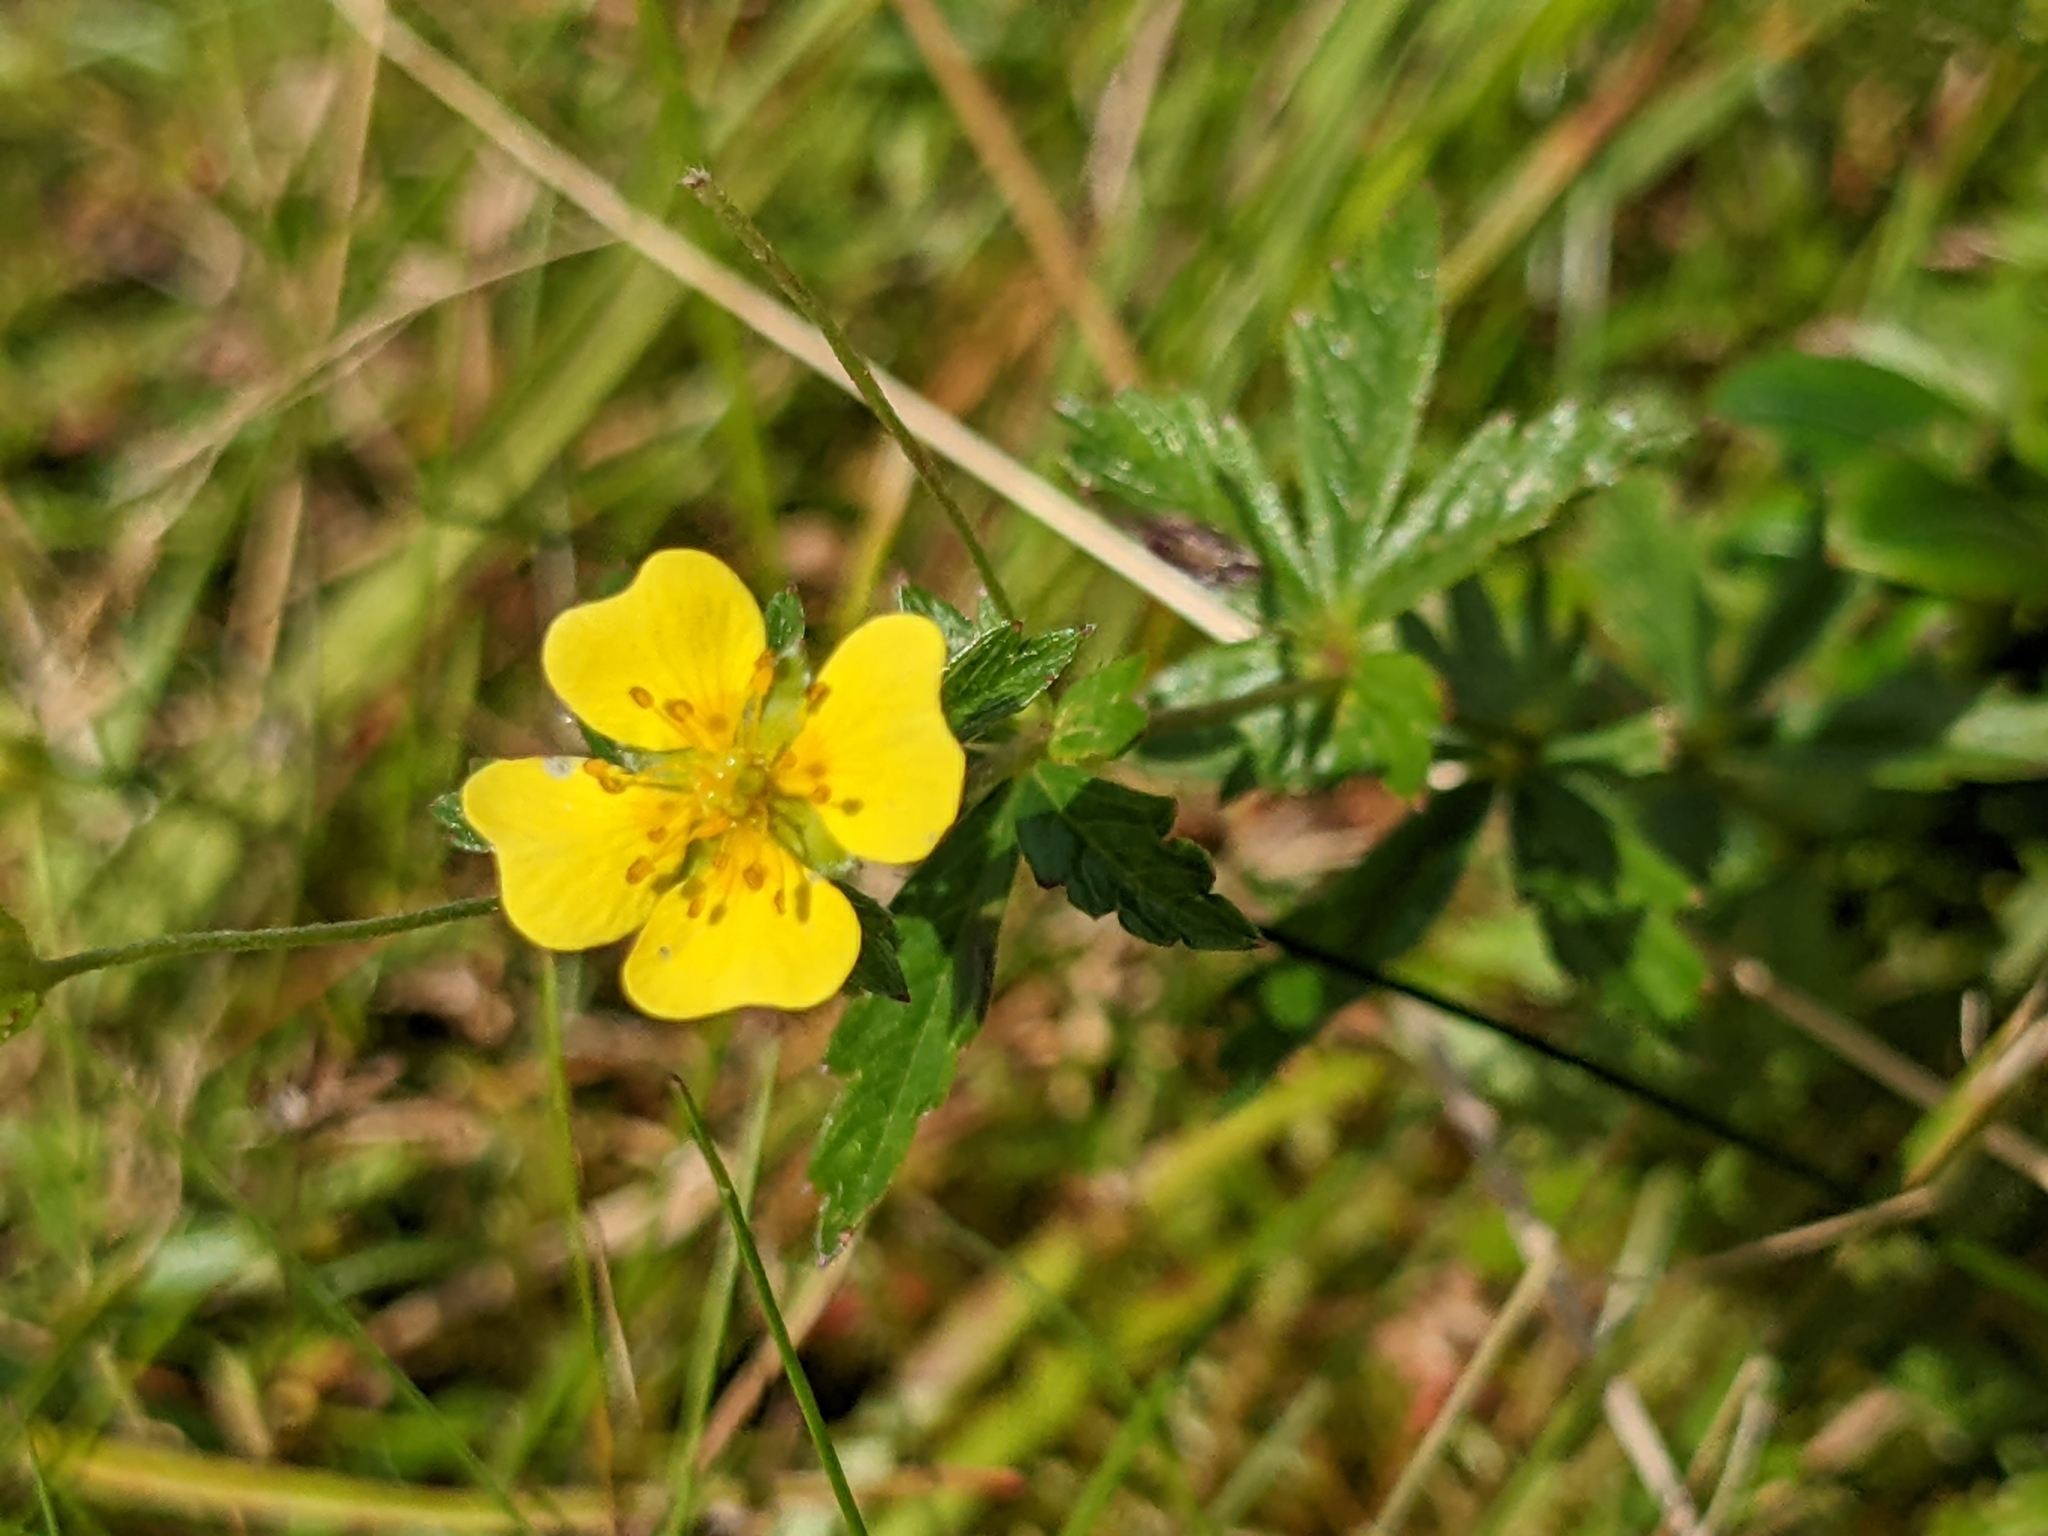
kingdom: Plantae
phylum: Tracheophyta
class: Magnoliopsida
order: Rosales
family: Rosaceae
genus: Potentilla
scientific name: Potentilla erecta
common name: Tormentil
